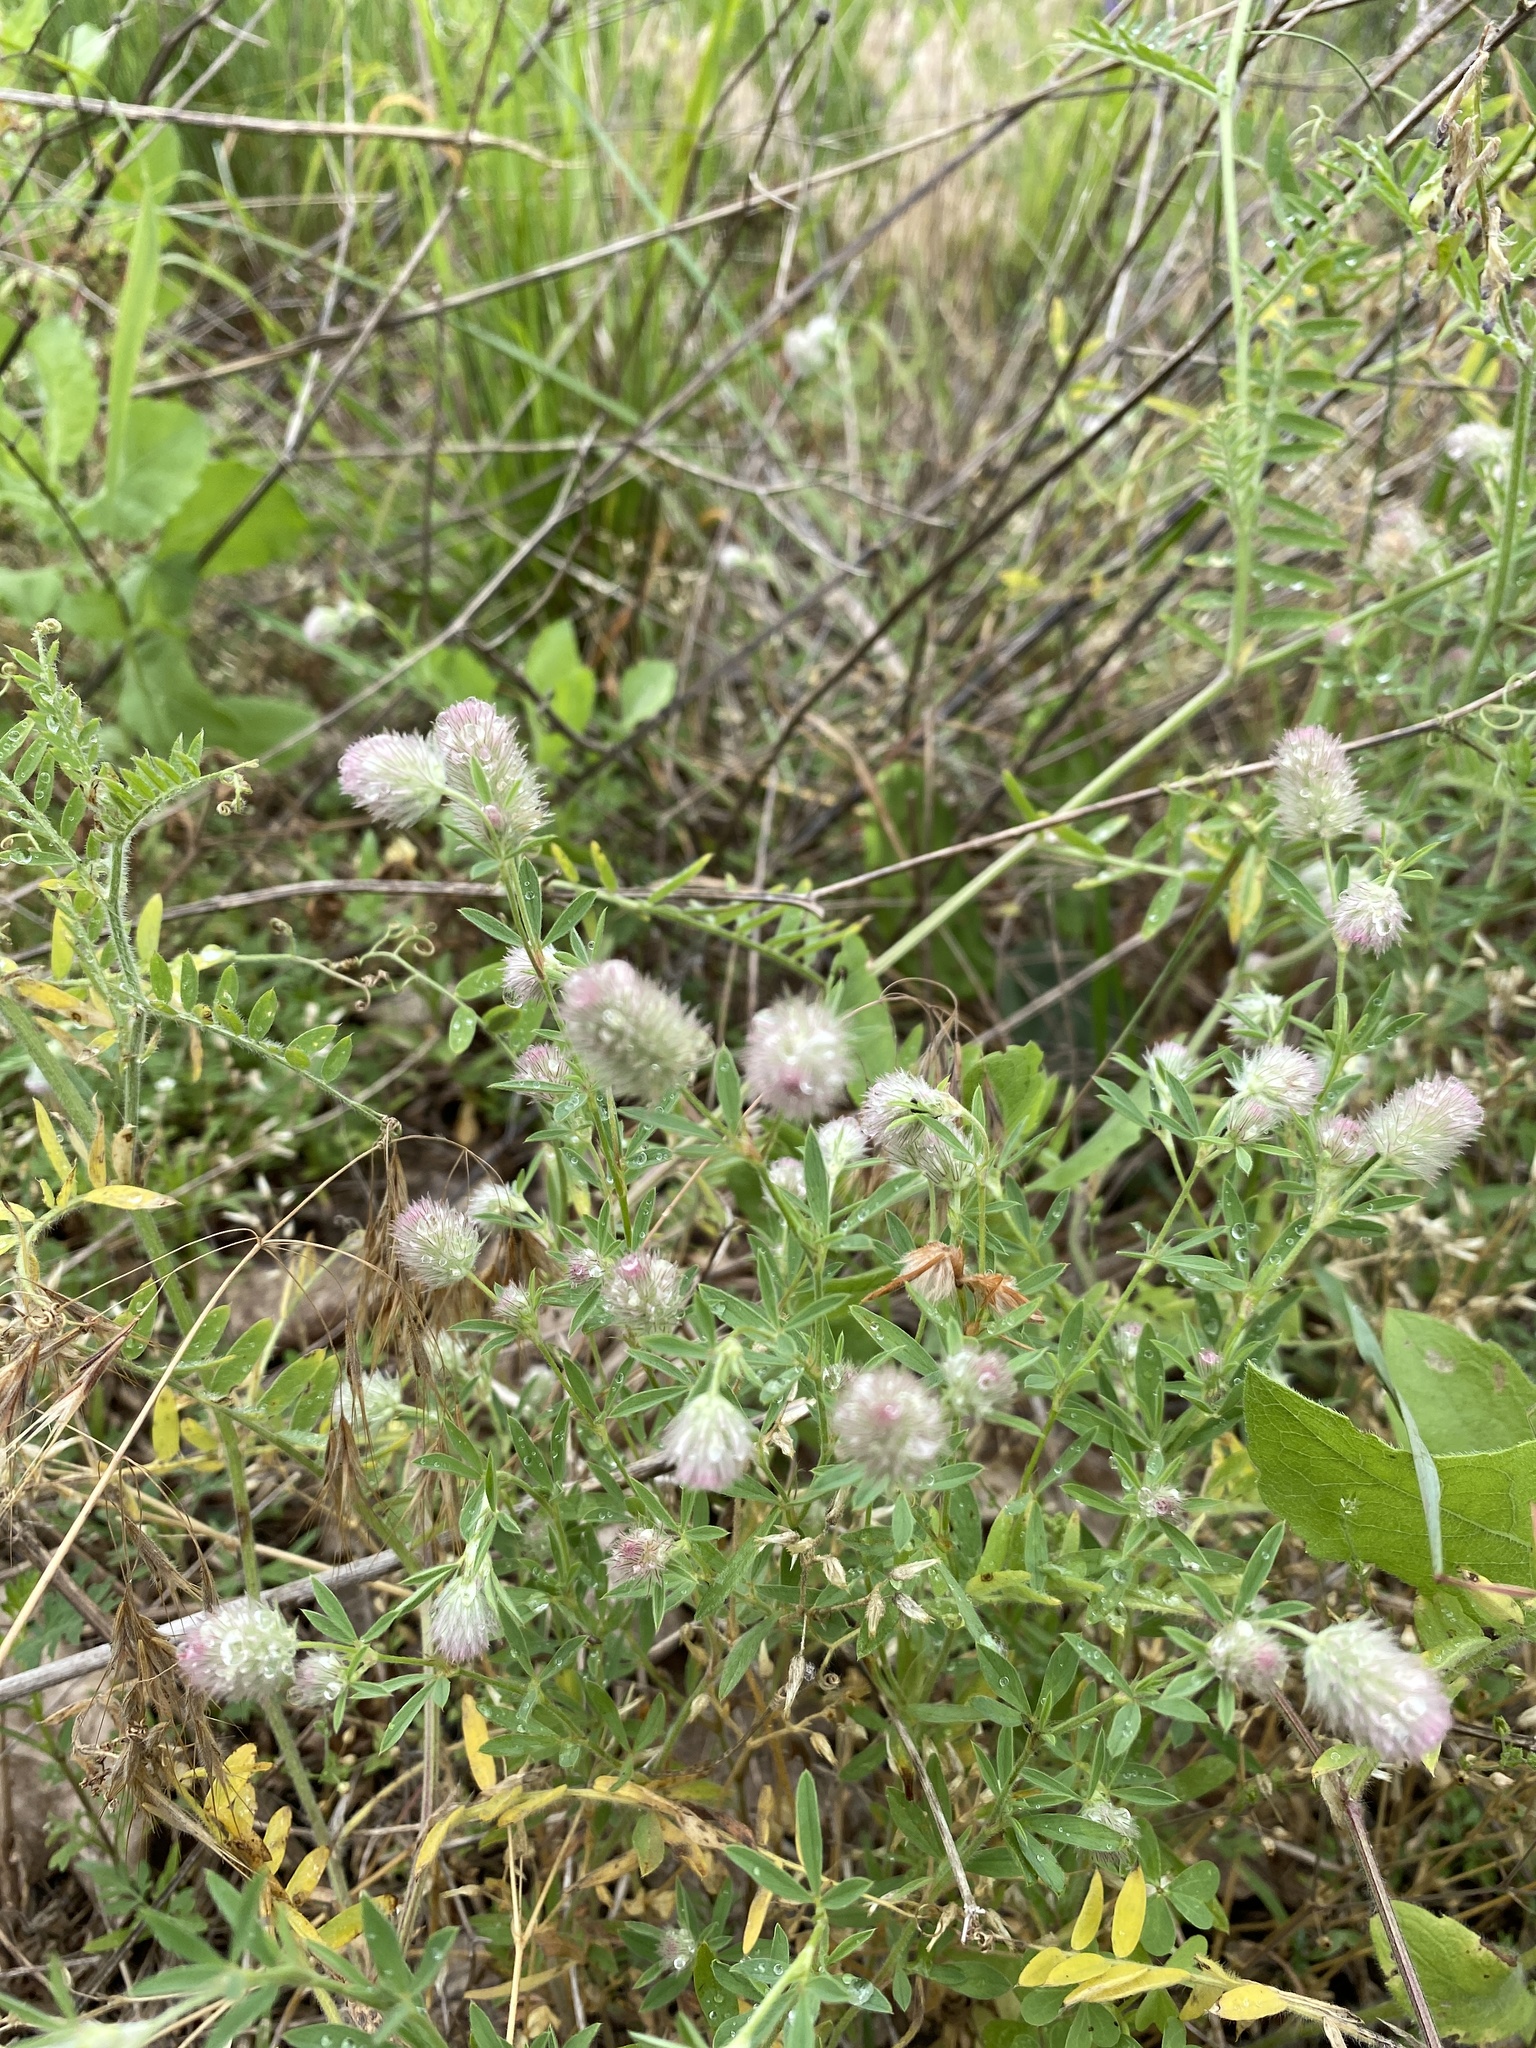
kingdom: Plantae
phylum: Tracheophyta
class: Magnoliopsida
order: Fabales
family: Fabaceae
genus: Trifolium
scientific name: Trifolium arvense
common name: Hare's-foot clover
